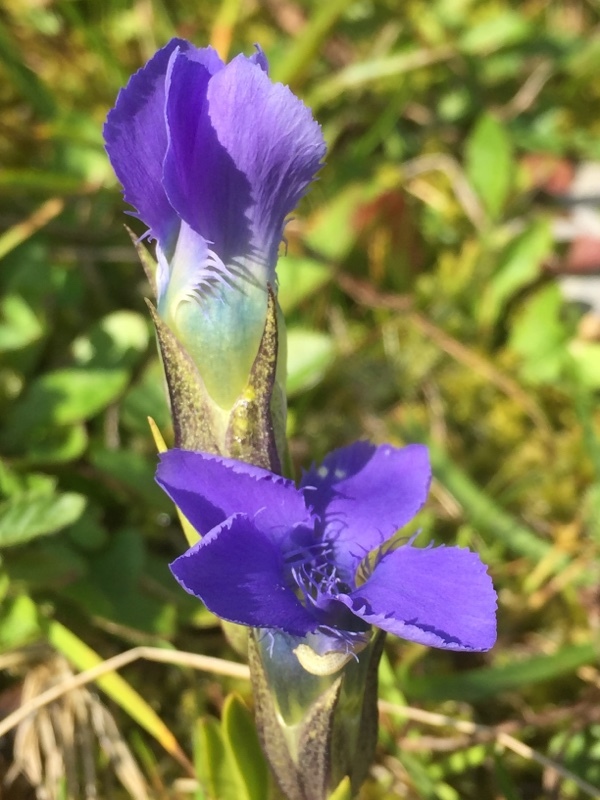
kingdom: Plantae
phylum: Tracheophyta
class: Magnoliopsida
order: Gentianales
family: Gentianaceae
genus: Gentianopsis
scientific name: Gentianopsis ciliata
